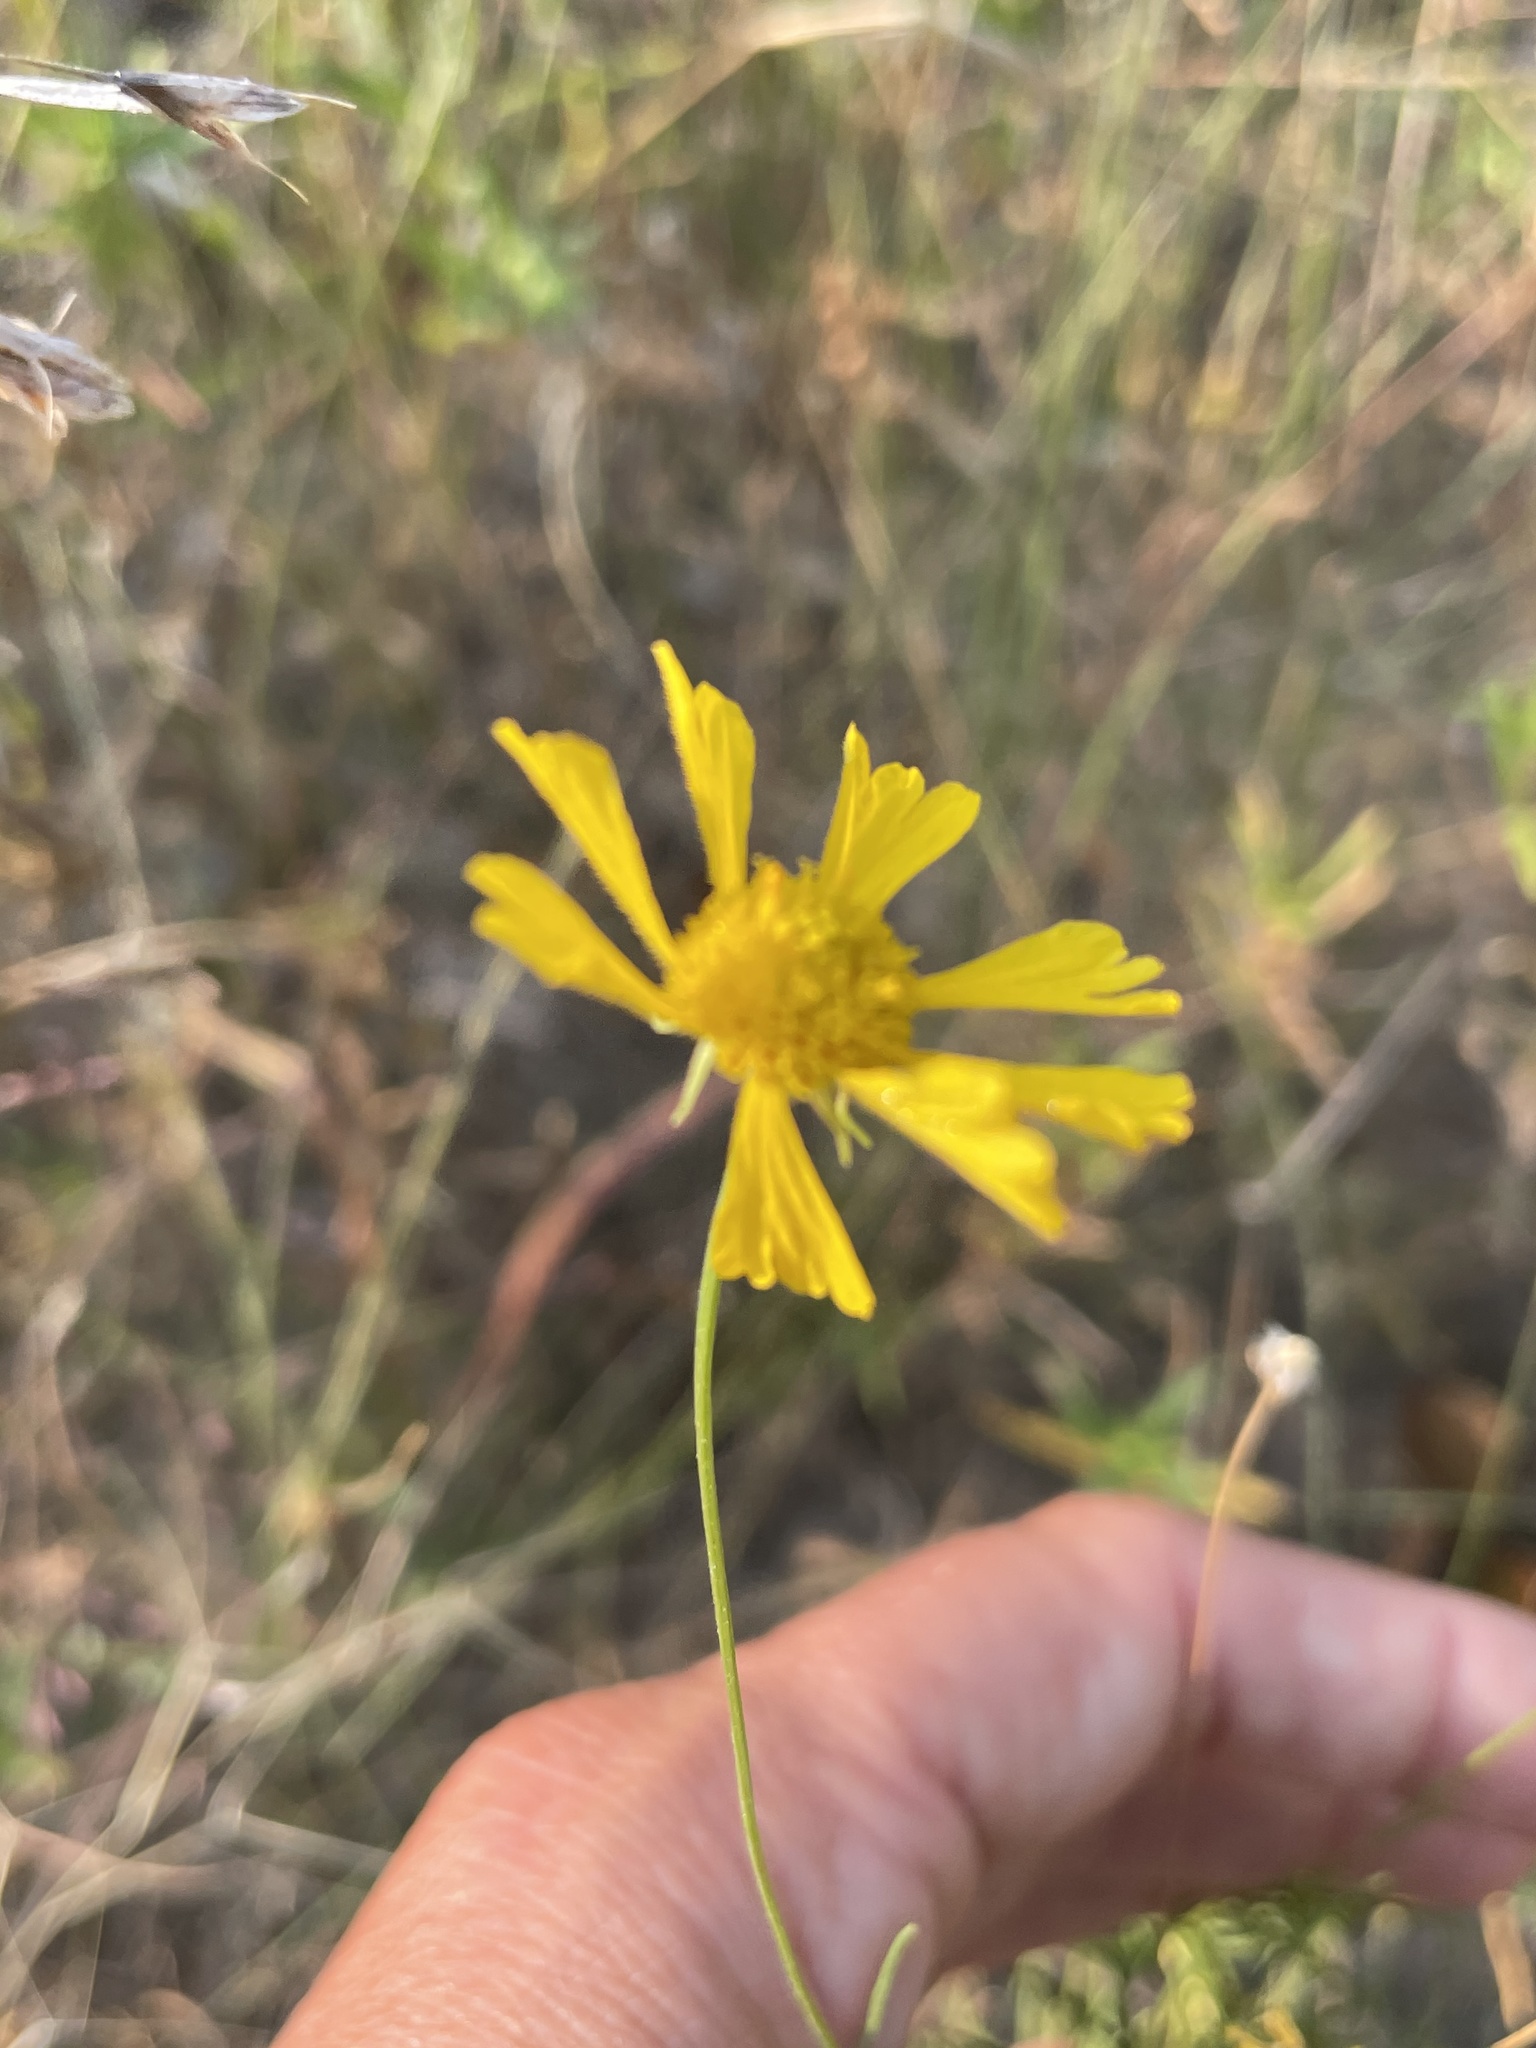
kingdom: Plantae
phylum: Tracheophyta
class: Magnoliopsida
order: Asterales
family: Asteraceae
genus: Helenium
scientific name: Helenium amarum
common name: Bitter sneezeweed
